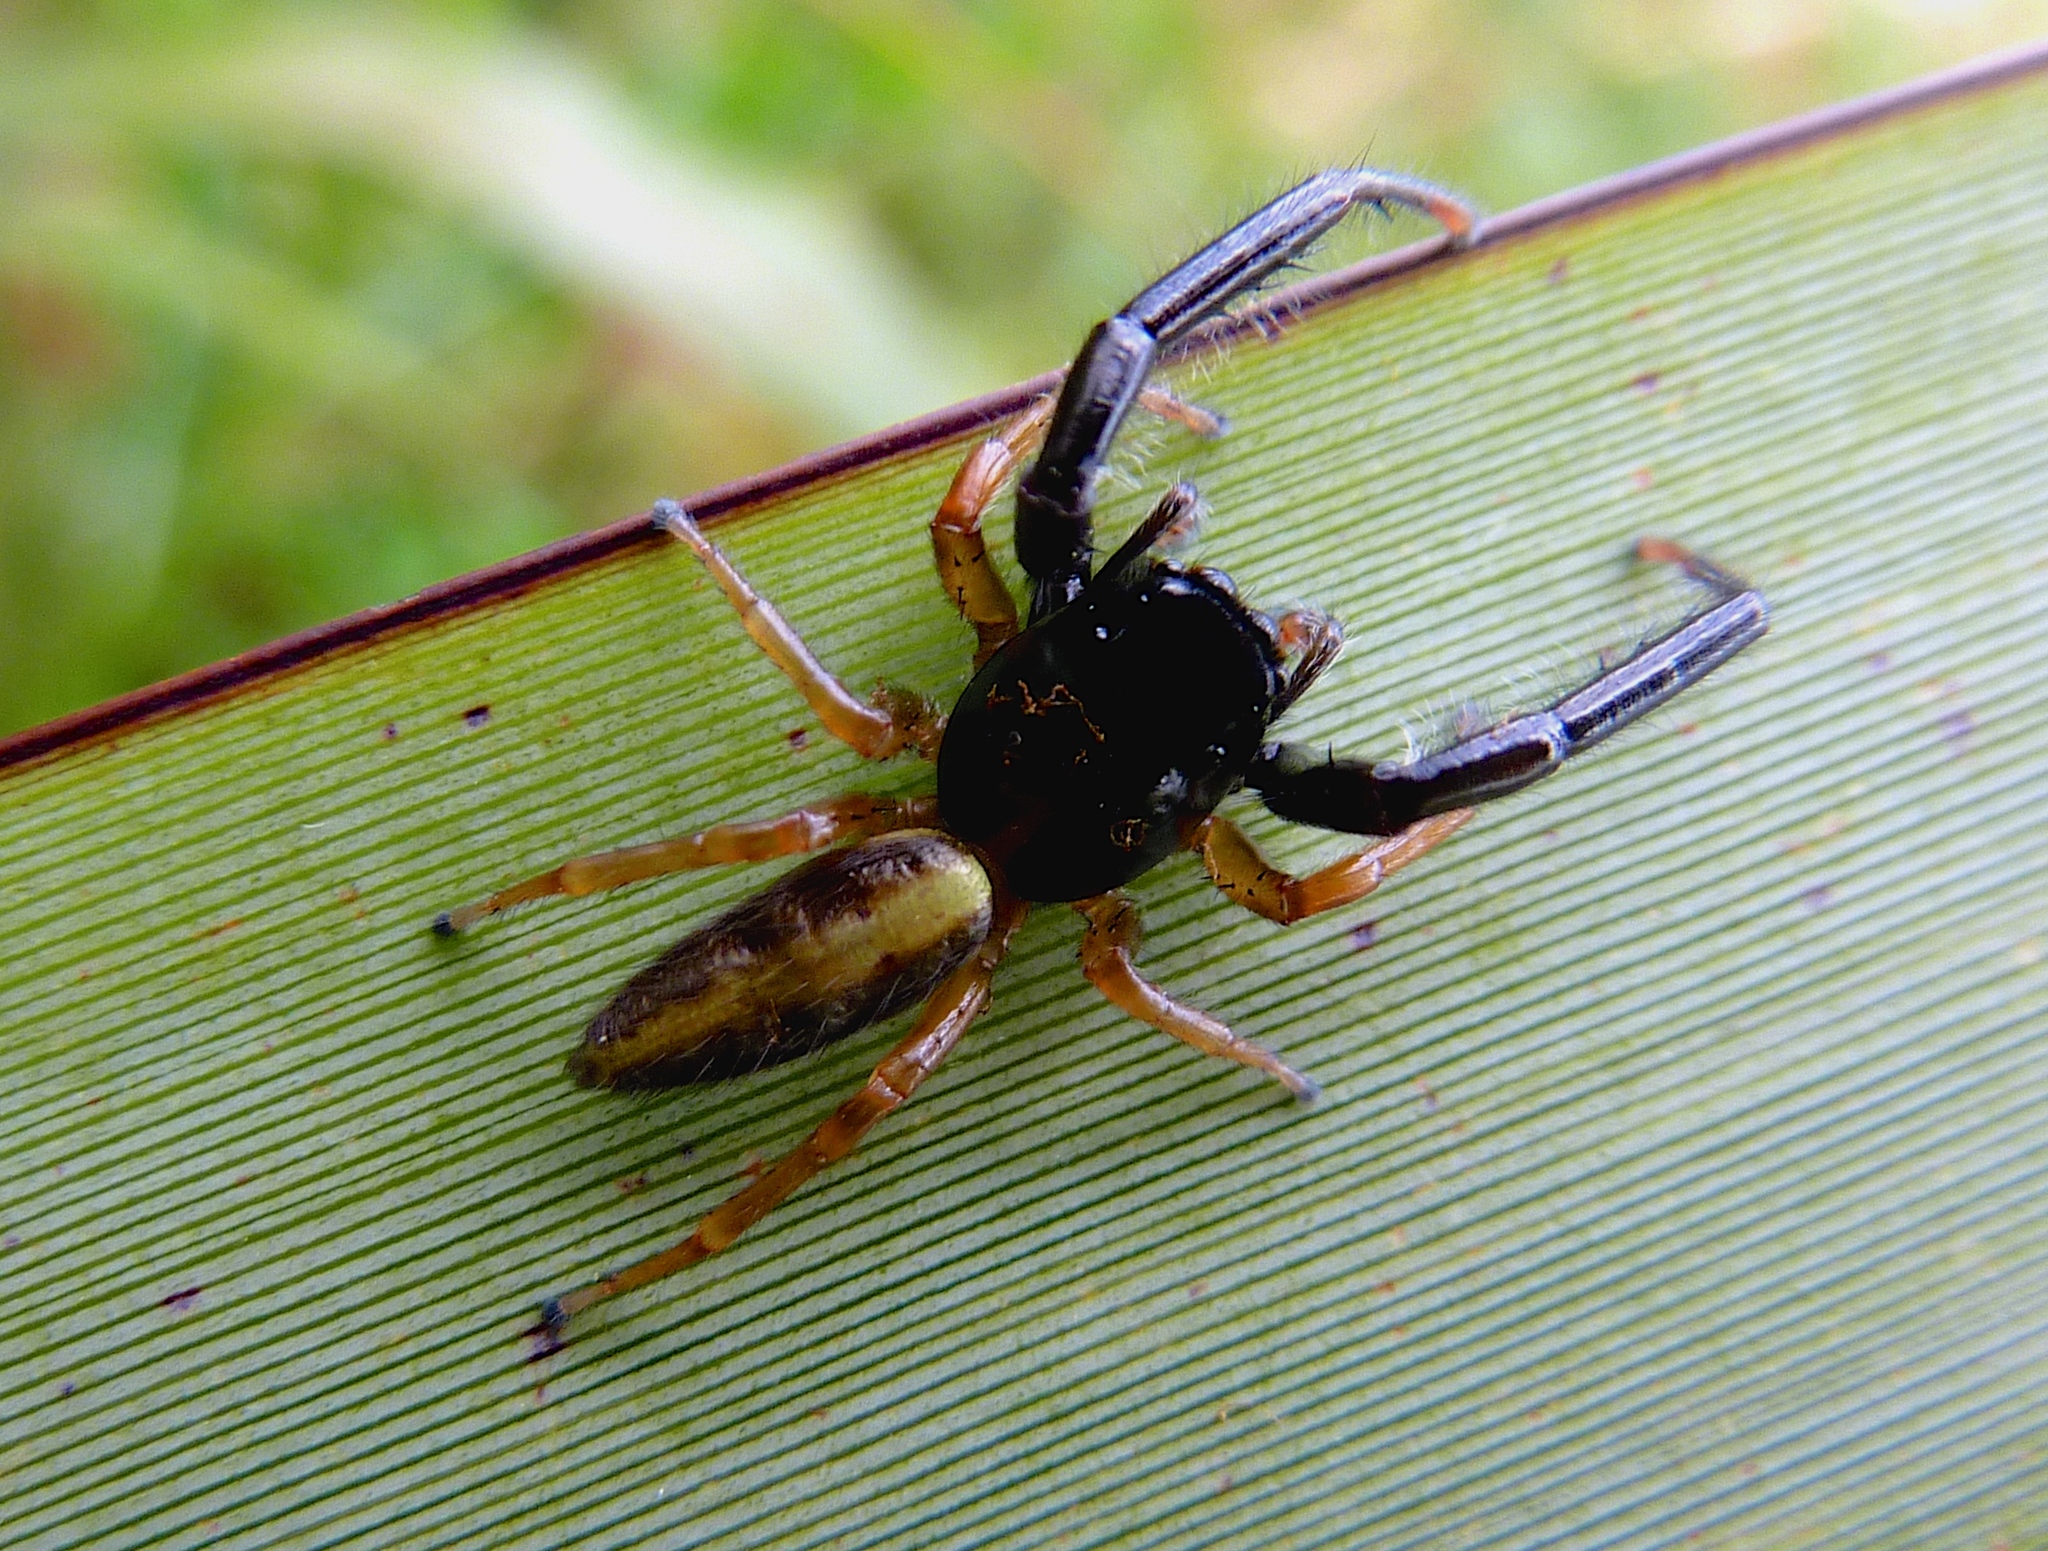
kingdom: Animalia
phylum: Arthropoda
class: Arachnida
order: Araneae
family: Salticidae
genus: Trite
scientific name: Trite planiceps
